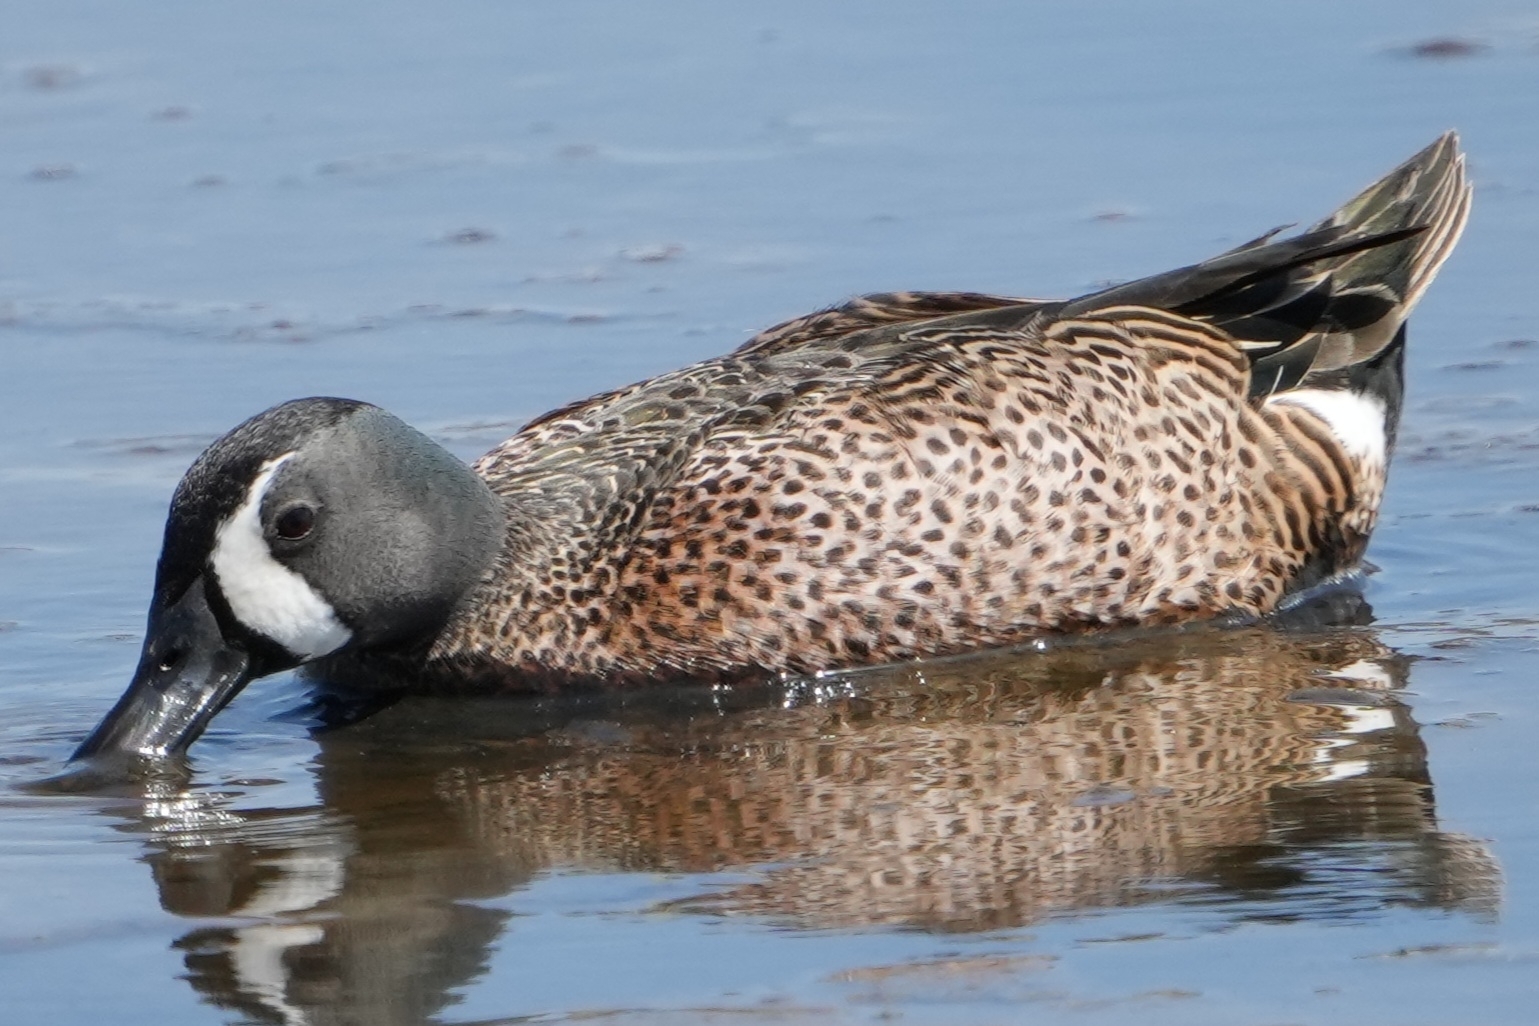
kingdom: Animalia
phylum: Chordata
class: Aves
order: Anseriformes
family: Anatidae
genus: Spatula
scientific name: Spatula discors
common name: Blue-winged teal
